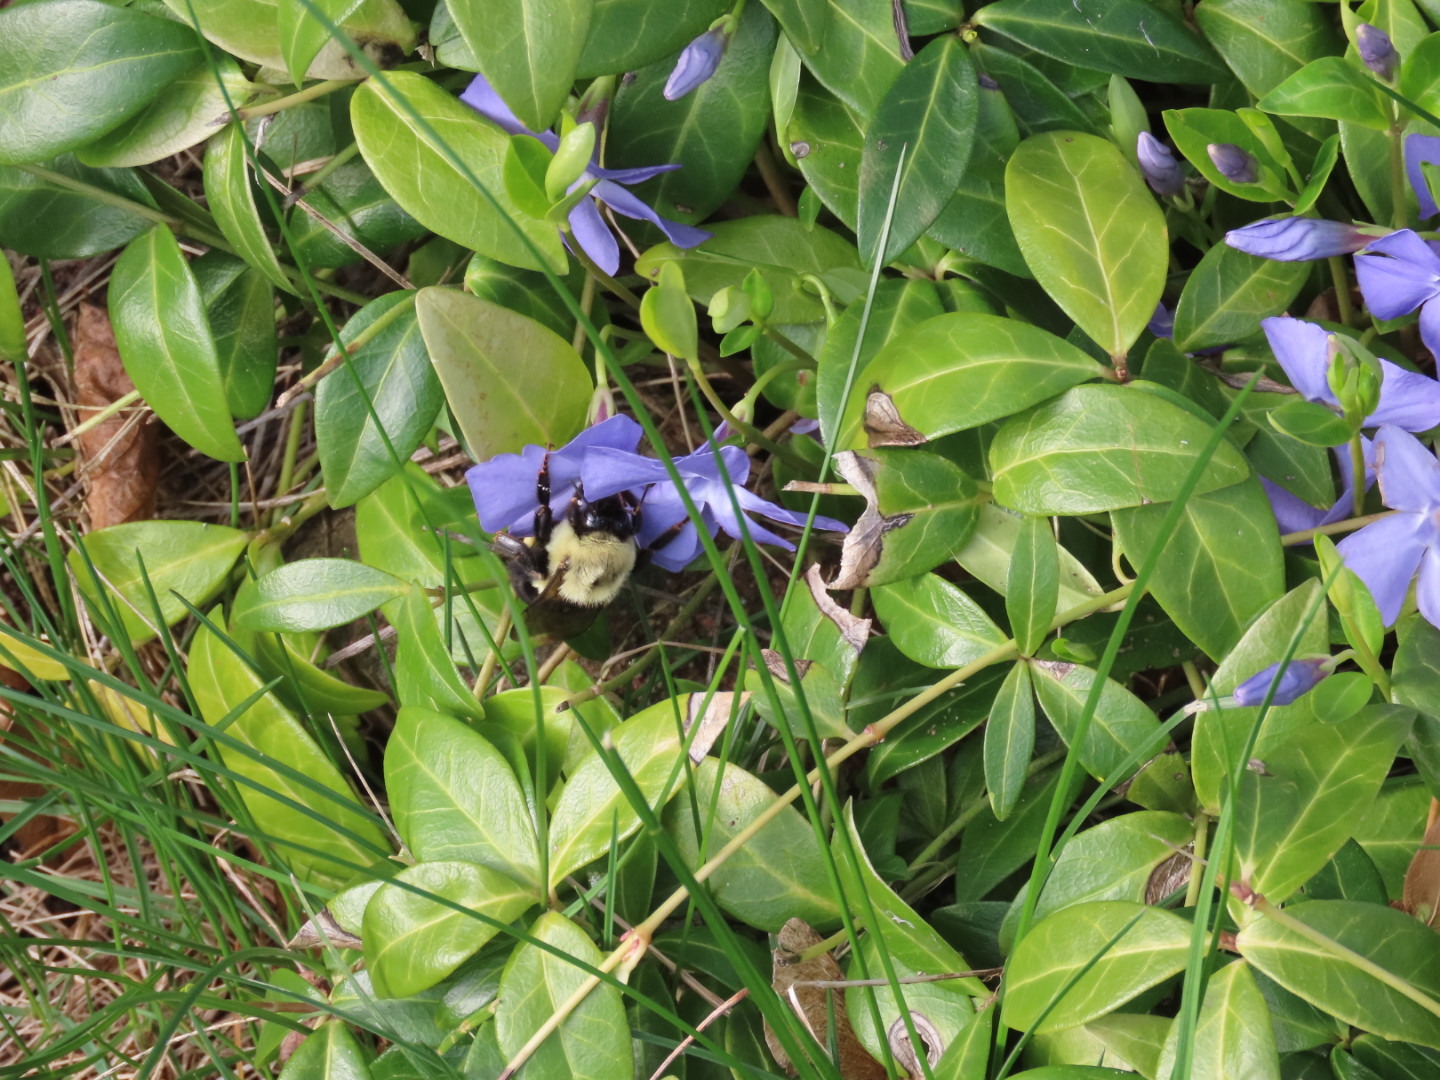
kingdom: Animalia
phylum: Arthropoda
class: Insecta
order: Hymenoptera
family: Apidae
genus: Bombus
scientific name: Bombus impatiens
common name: Common eastern bumble bee
